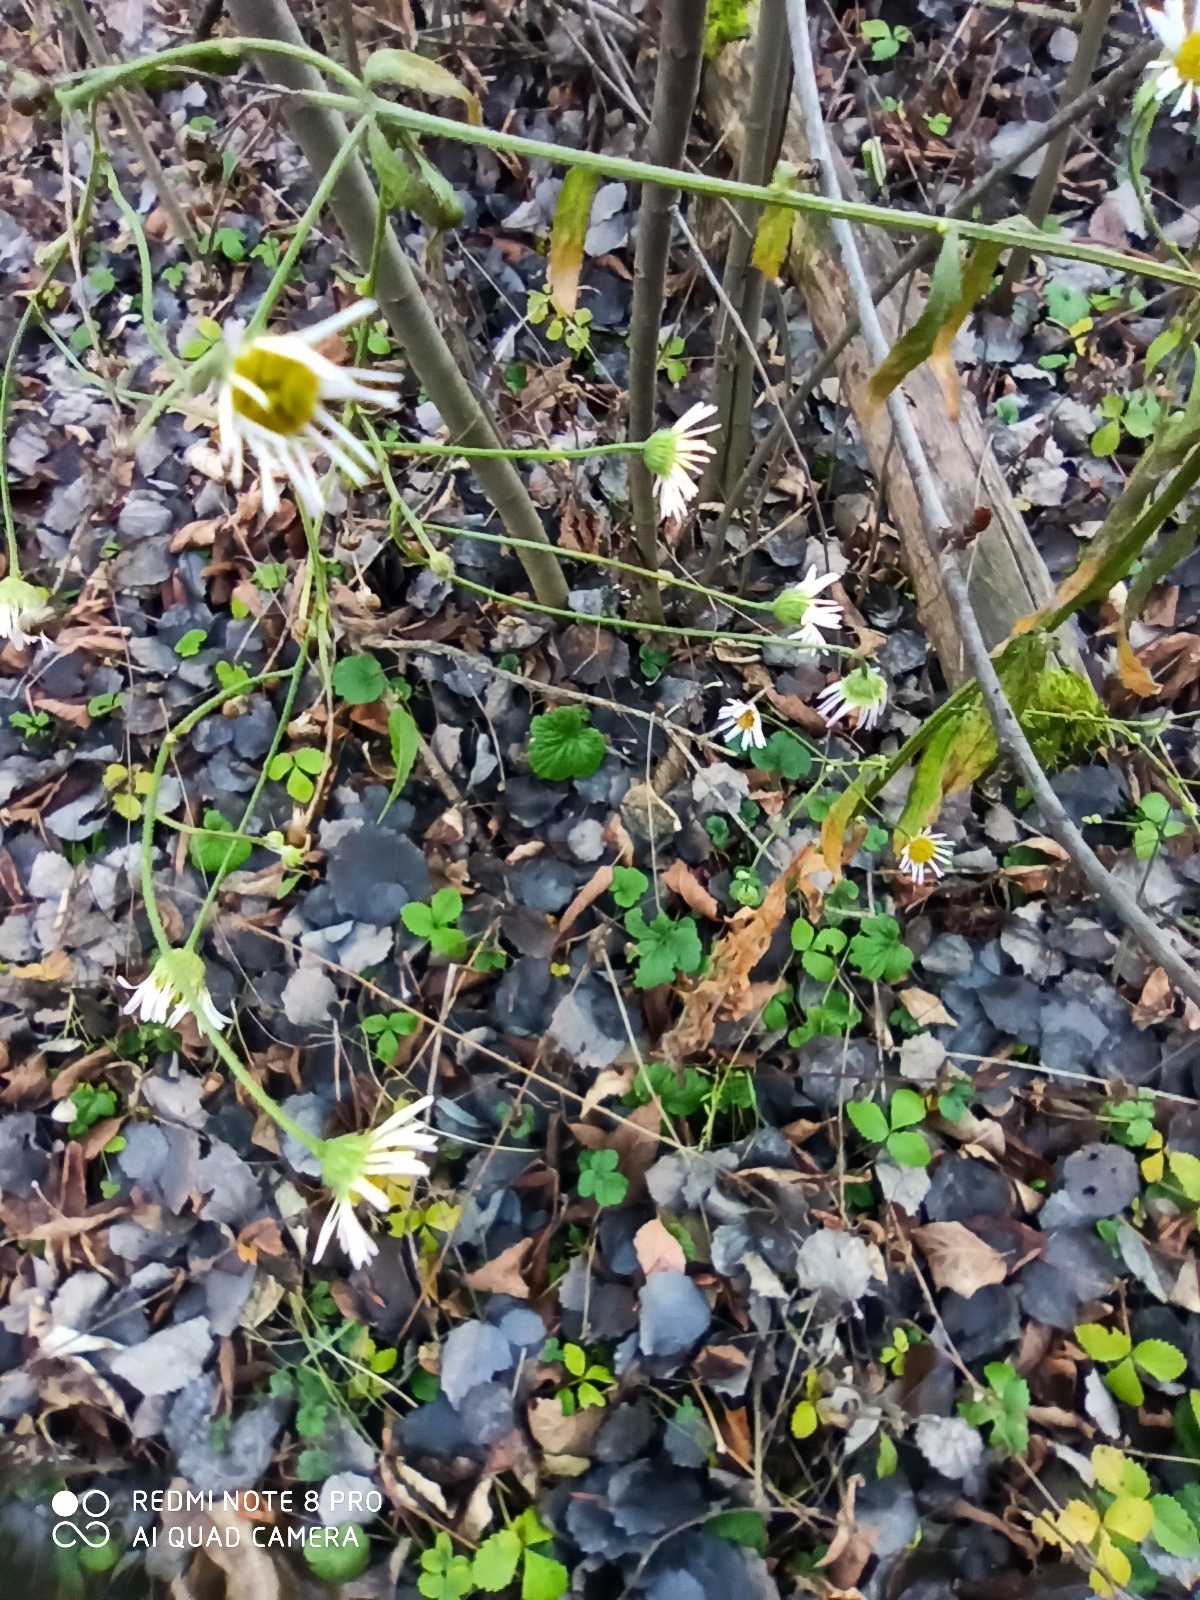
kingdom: Plantae
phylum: Tracheophyta
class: Magnoliopsida
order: Asterales
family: Asteraceae
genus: Erigeron
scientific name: Erigeron annuus
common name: Tall fleabane
